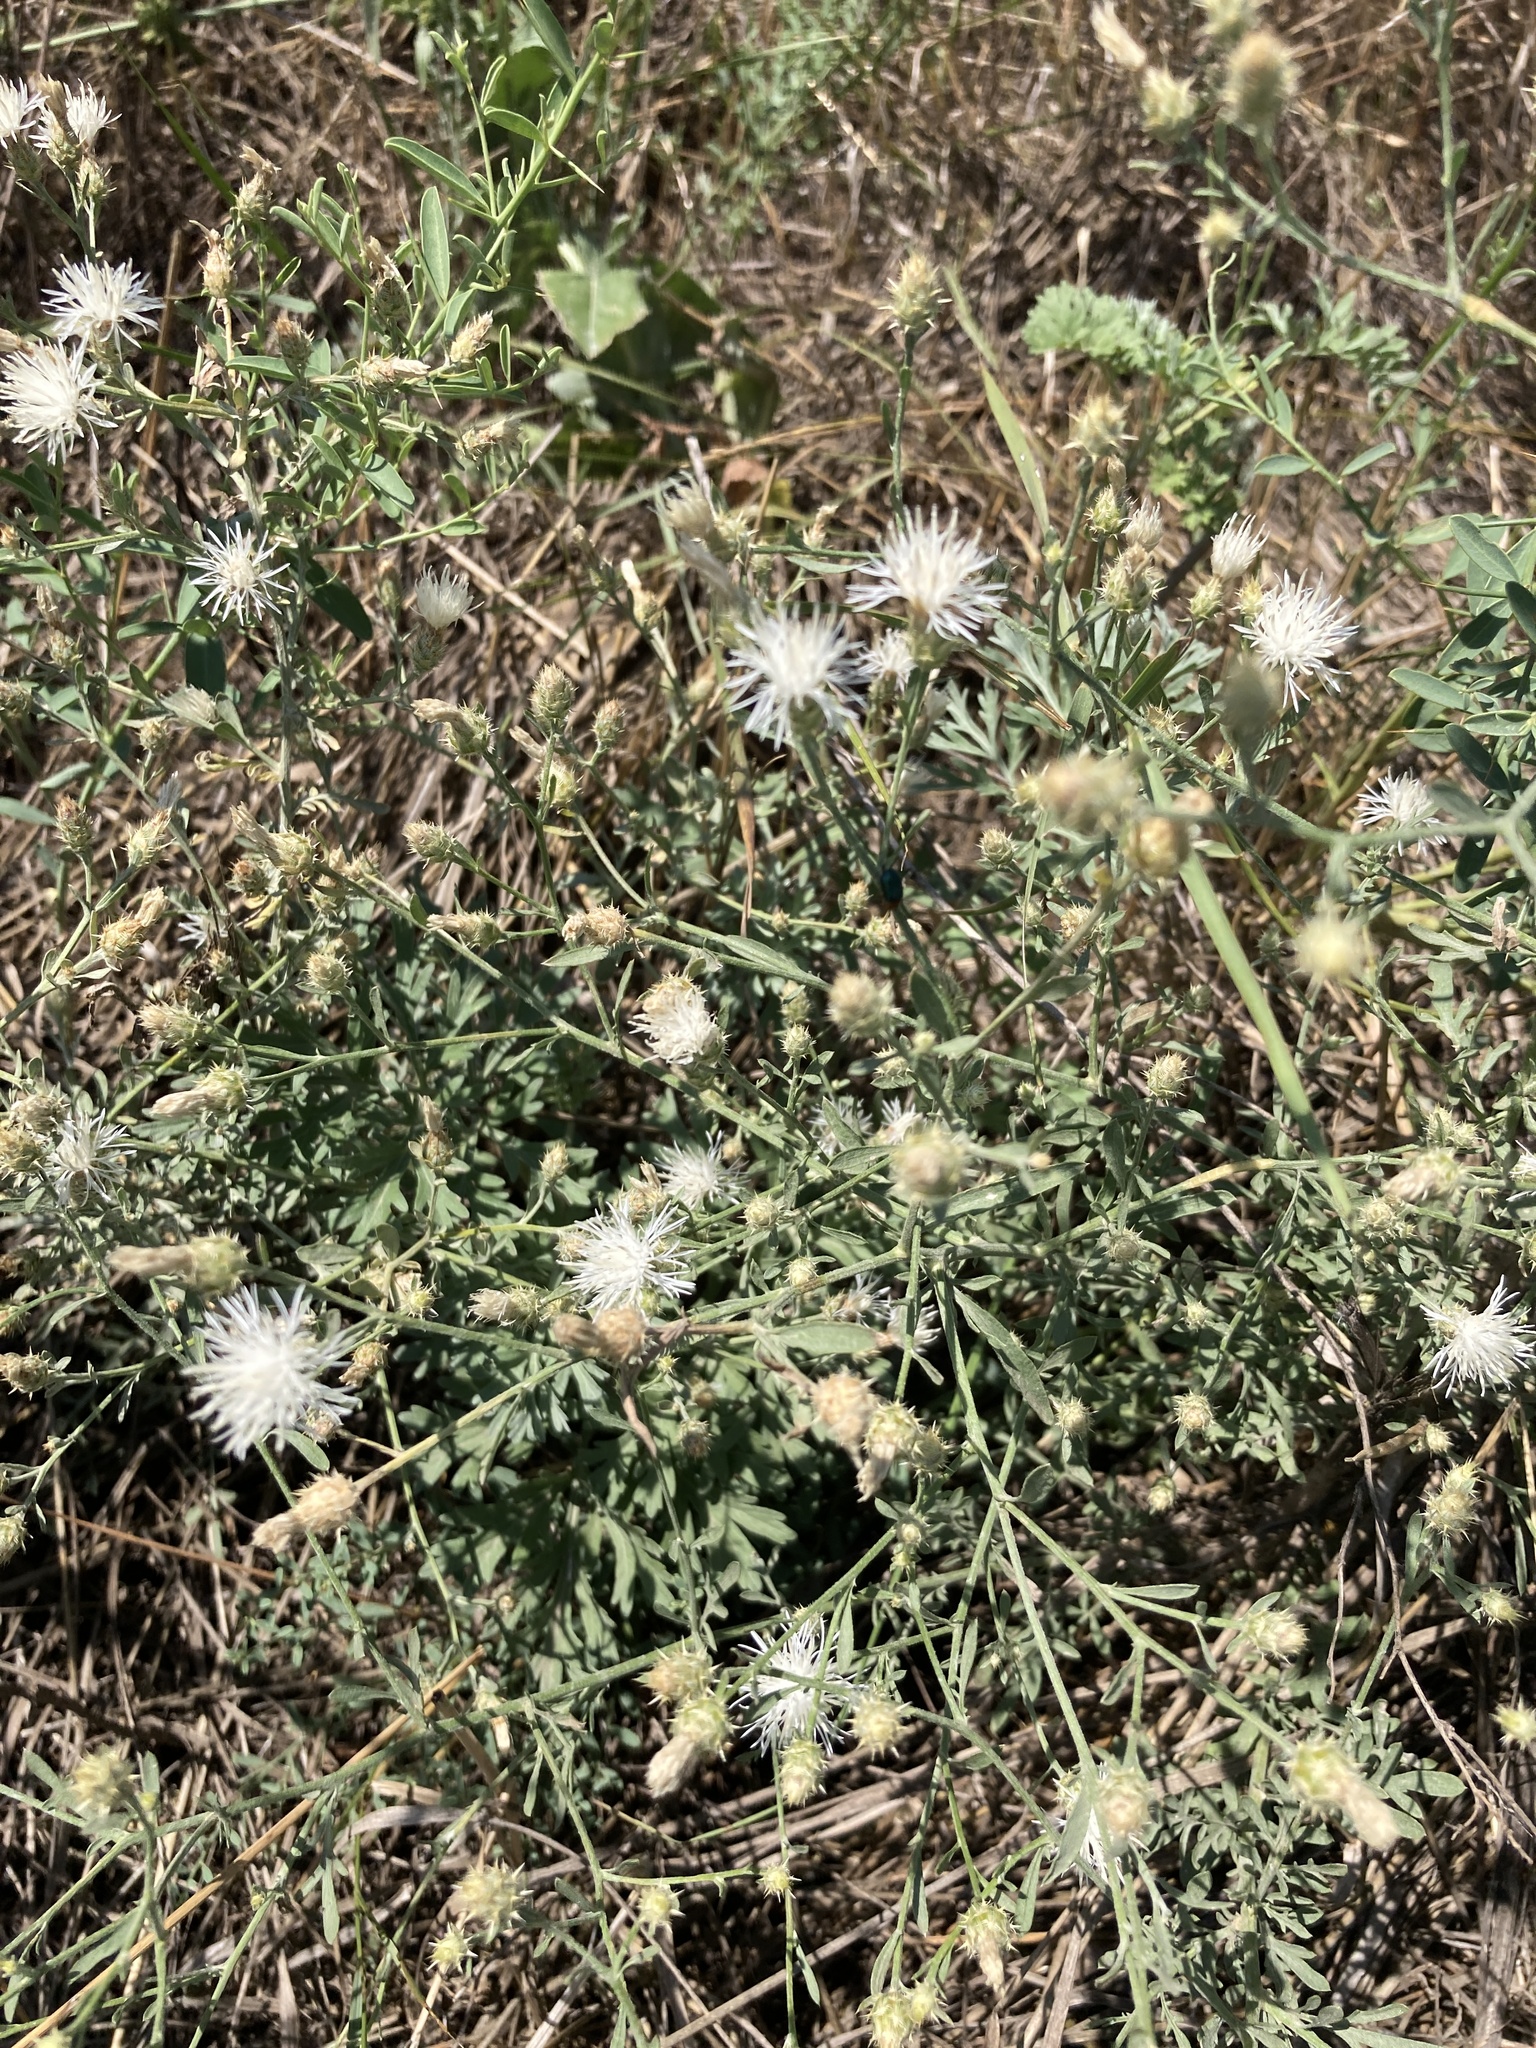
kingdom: Plantae
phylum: Tracheophyta
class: Magnoliopsida
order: Asterales
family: Asteraceae
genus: Centaurea
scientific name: Centaurea diffusa
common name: Diffuse knapweed
